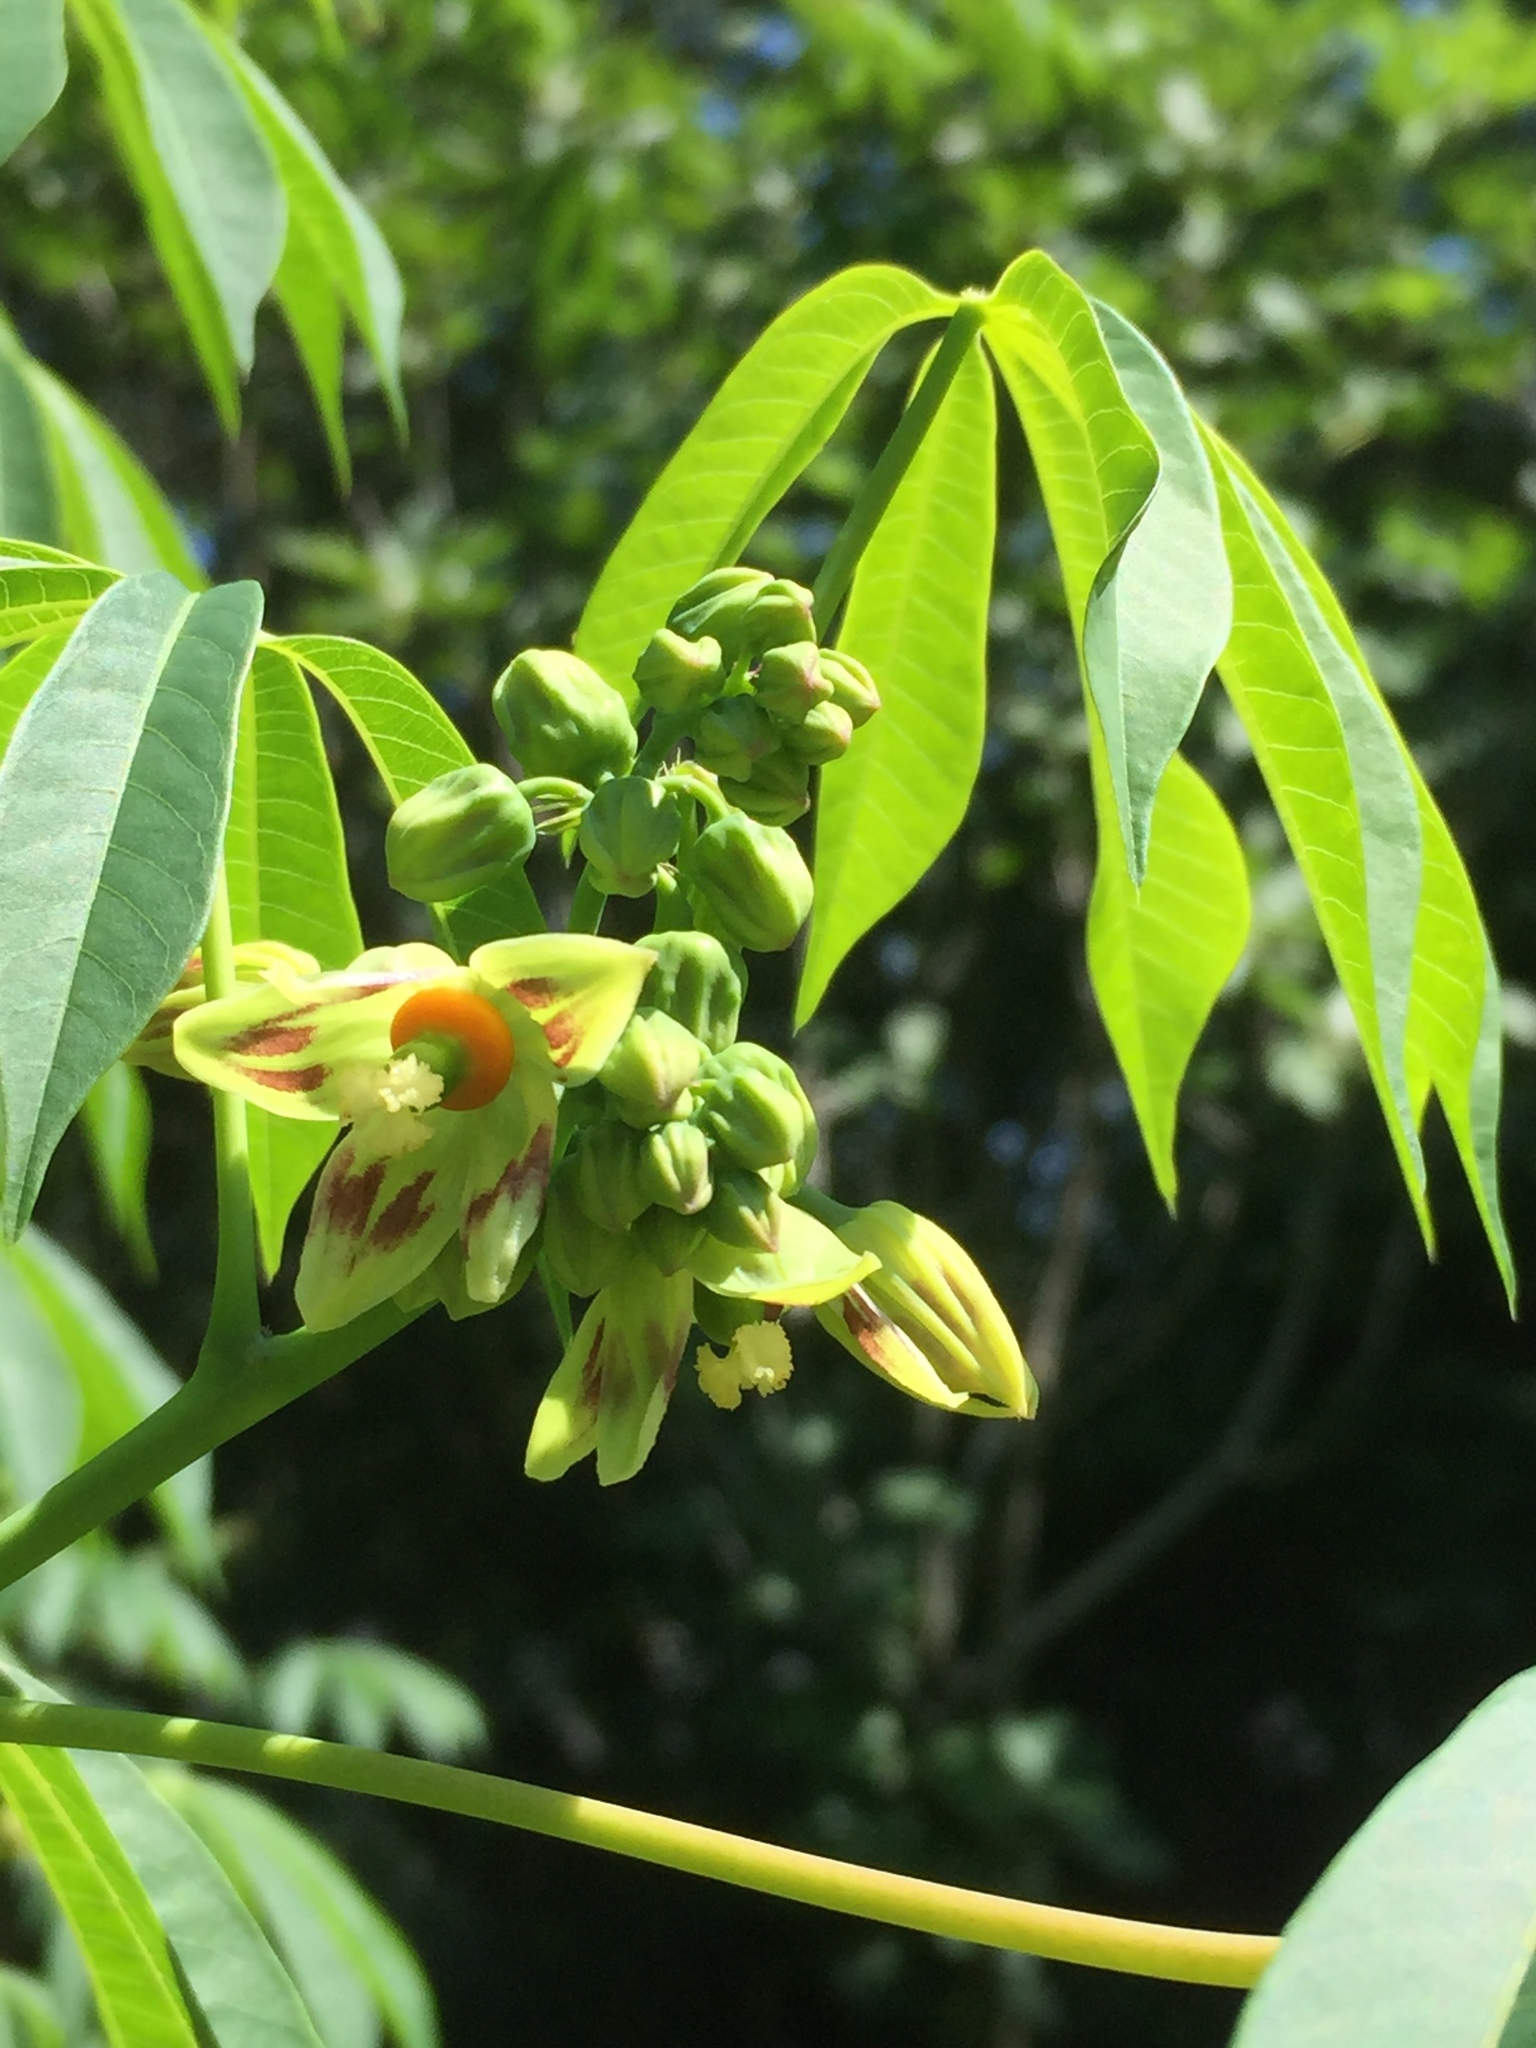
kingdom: Plantae
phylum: Tracheophyta
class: Magnoliopsida
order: Malpighiales
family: Euphorbiaceae
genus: Manihot
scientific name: Manihot grahamii
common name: Graham's manihot
